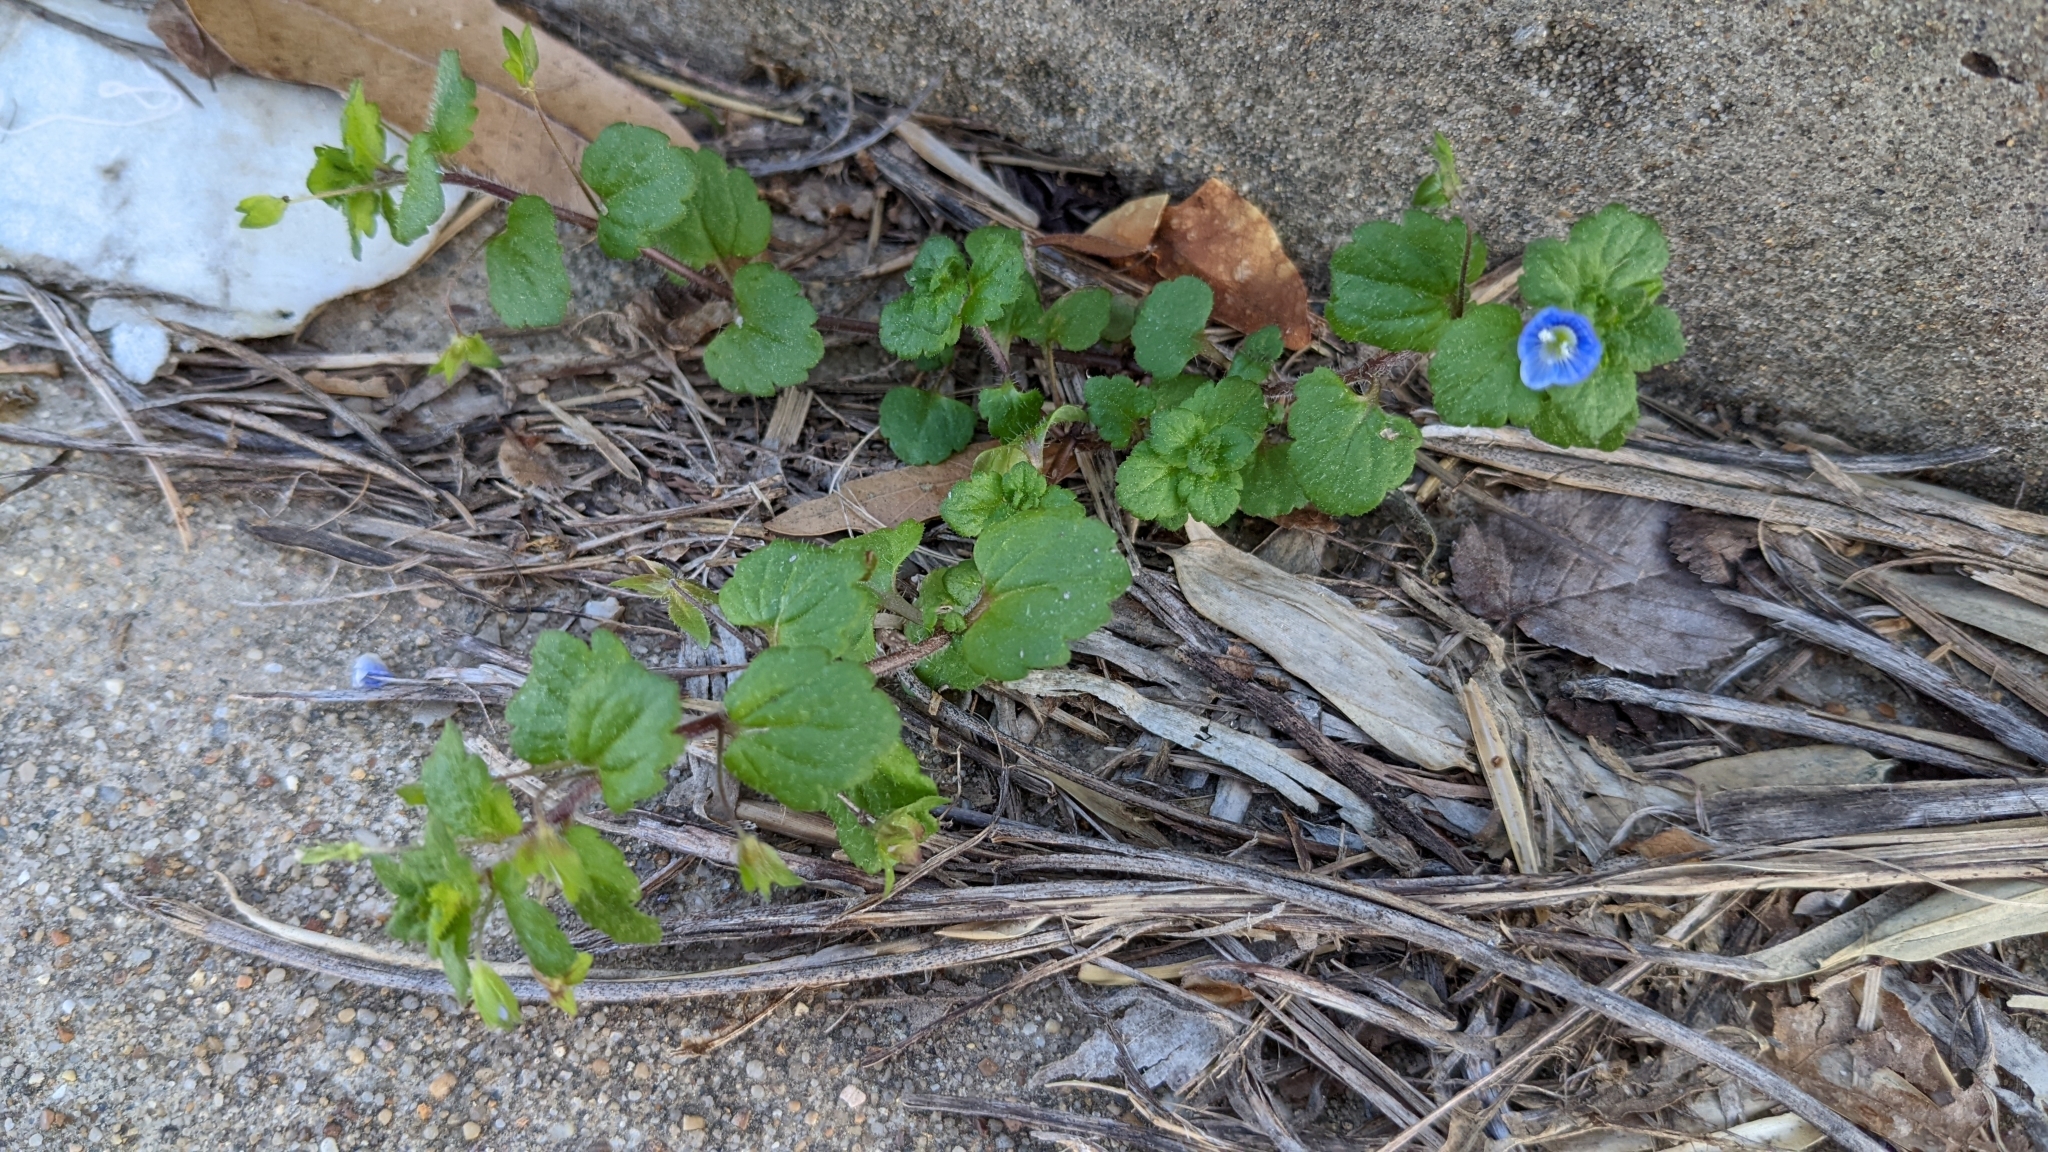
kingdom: Plantae
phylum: Tracheophyta
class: Magnoliopsida
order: Lamiales
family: Plantaginaceae
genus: Veronica
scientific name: Veronica persica
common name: Common field-speedwell
